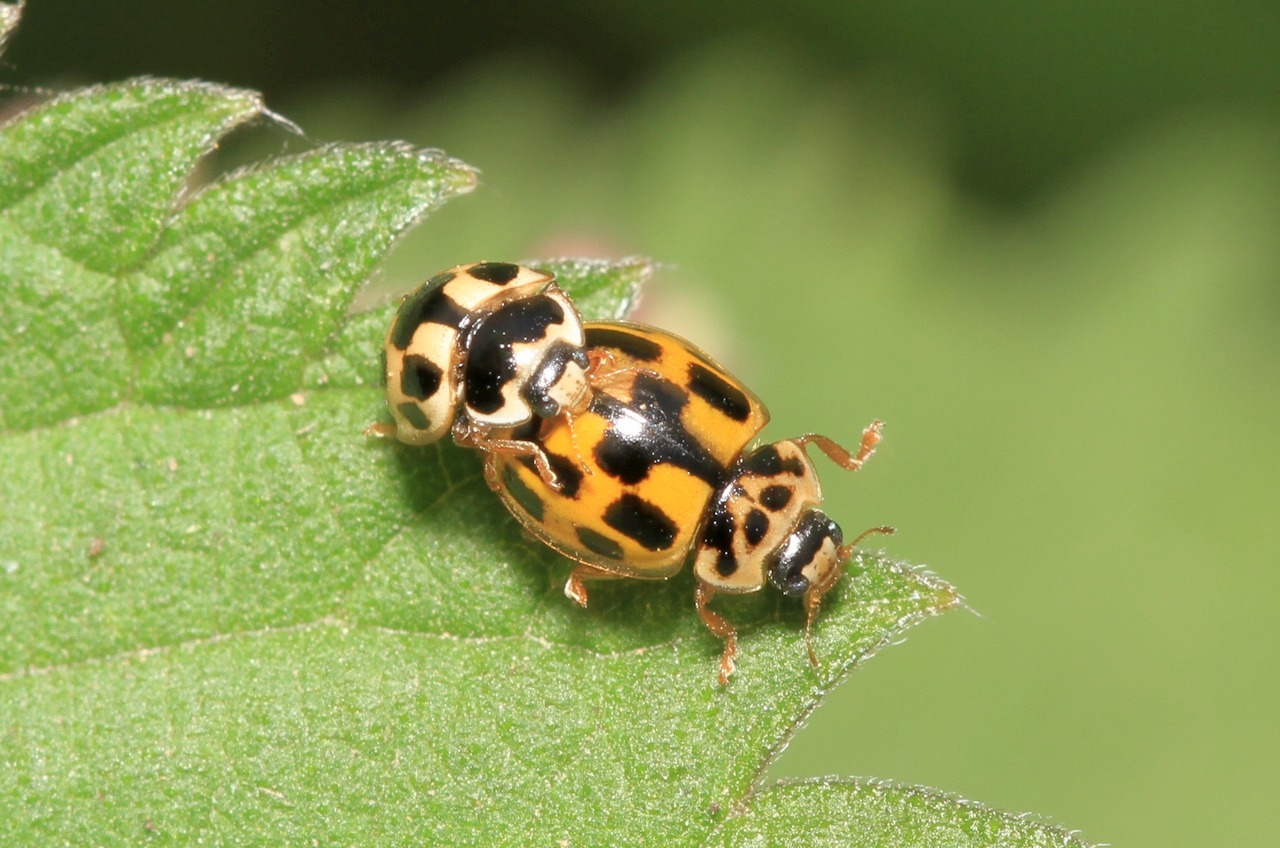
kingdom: Animalia
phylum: Arthropoda
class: Insecta
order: Coleoptera
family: Coccinellidae
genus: Propylaea
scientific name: Propylaea quatuordecimpunctata
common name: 14-spotted ladybird beetle
